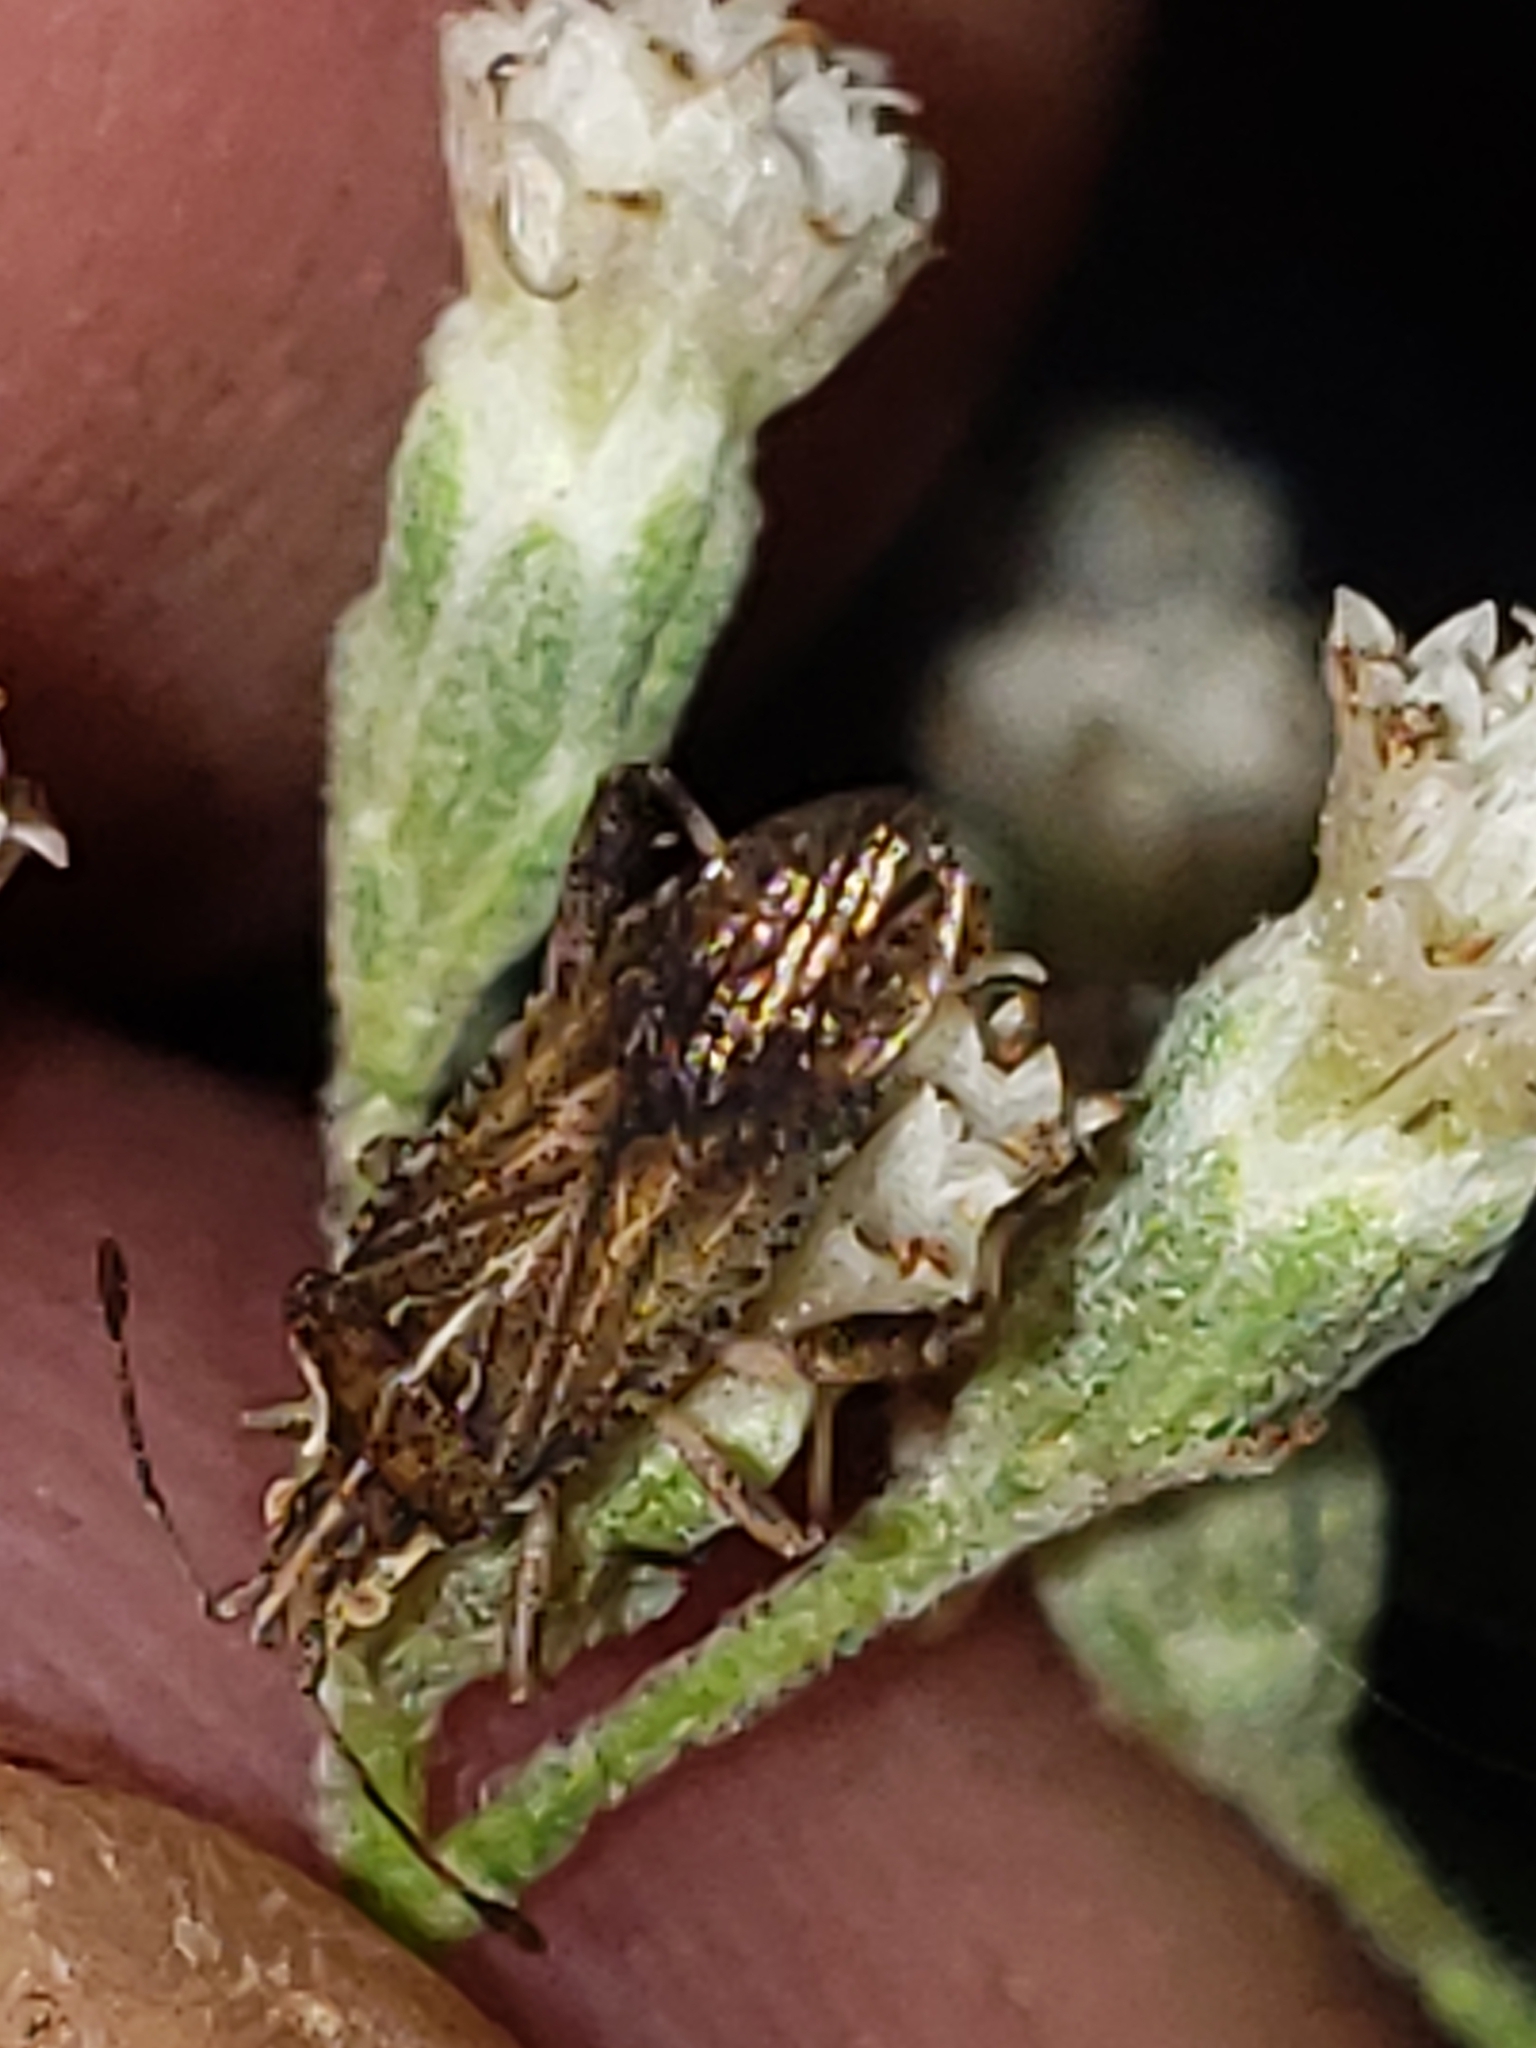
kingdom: Animalia
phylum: Arthropoda
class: Insecta
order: Hemiptera
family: Rhopalidae
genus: Harmostes
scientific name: Harmostes fraterculus
